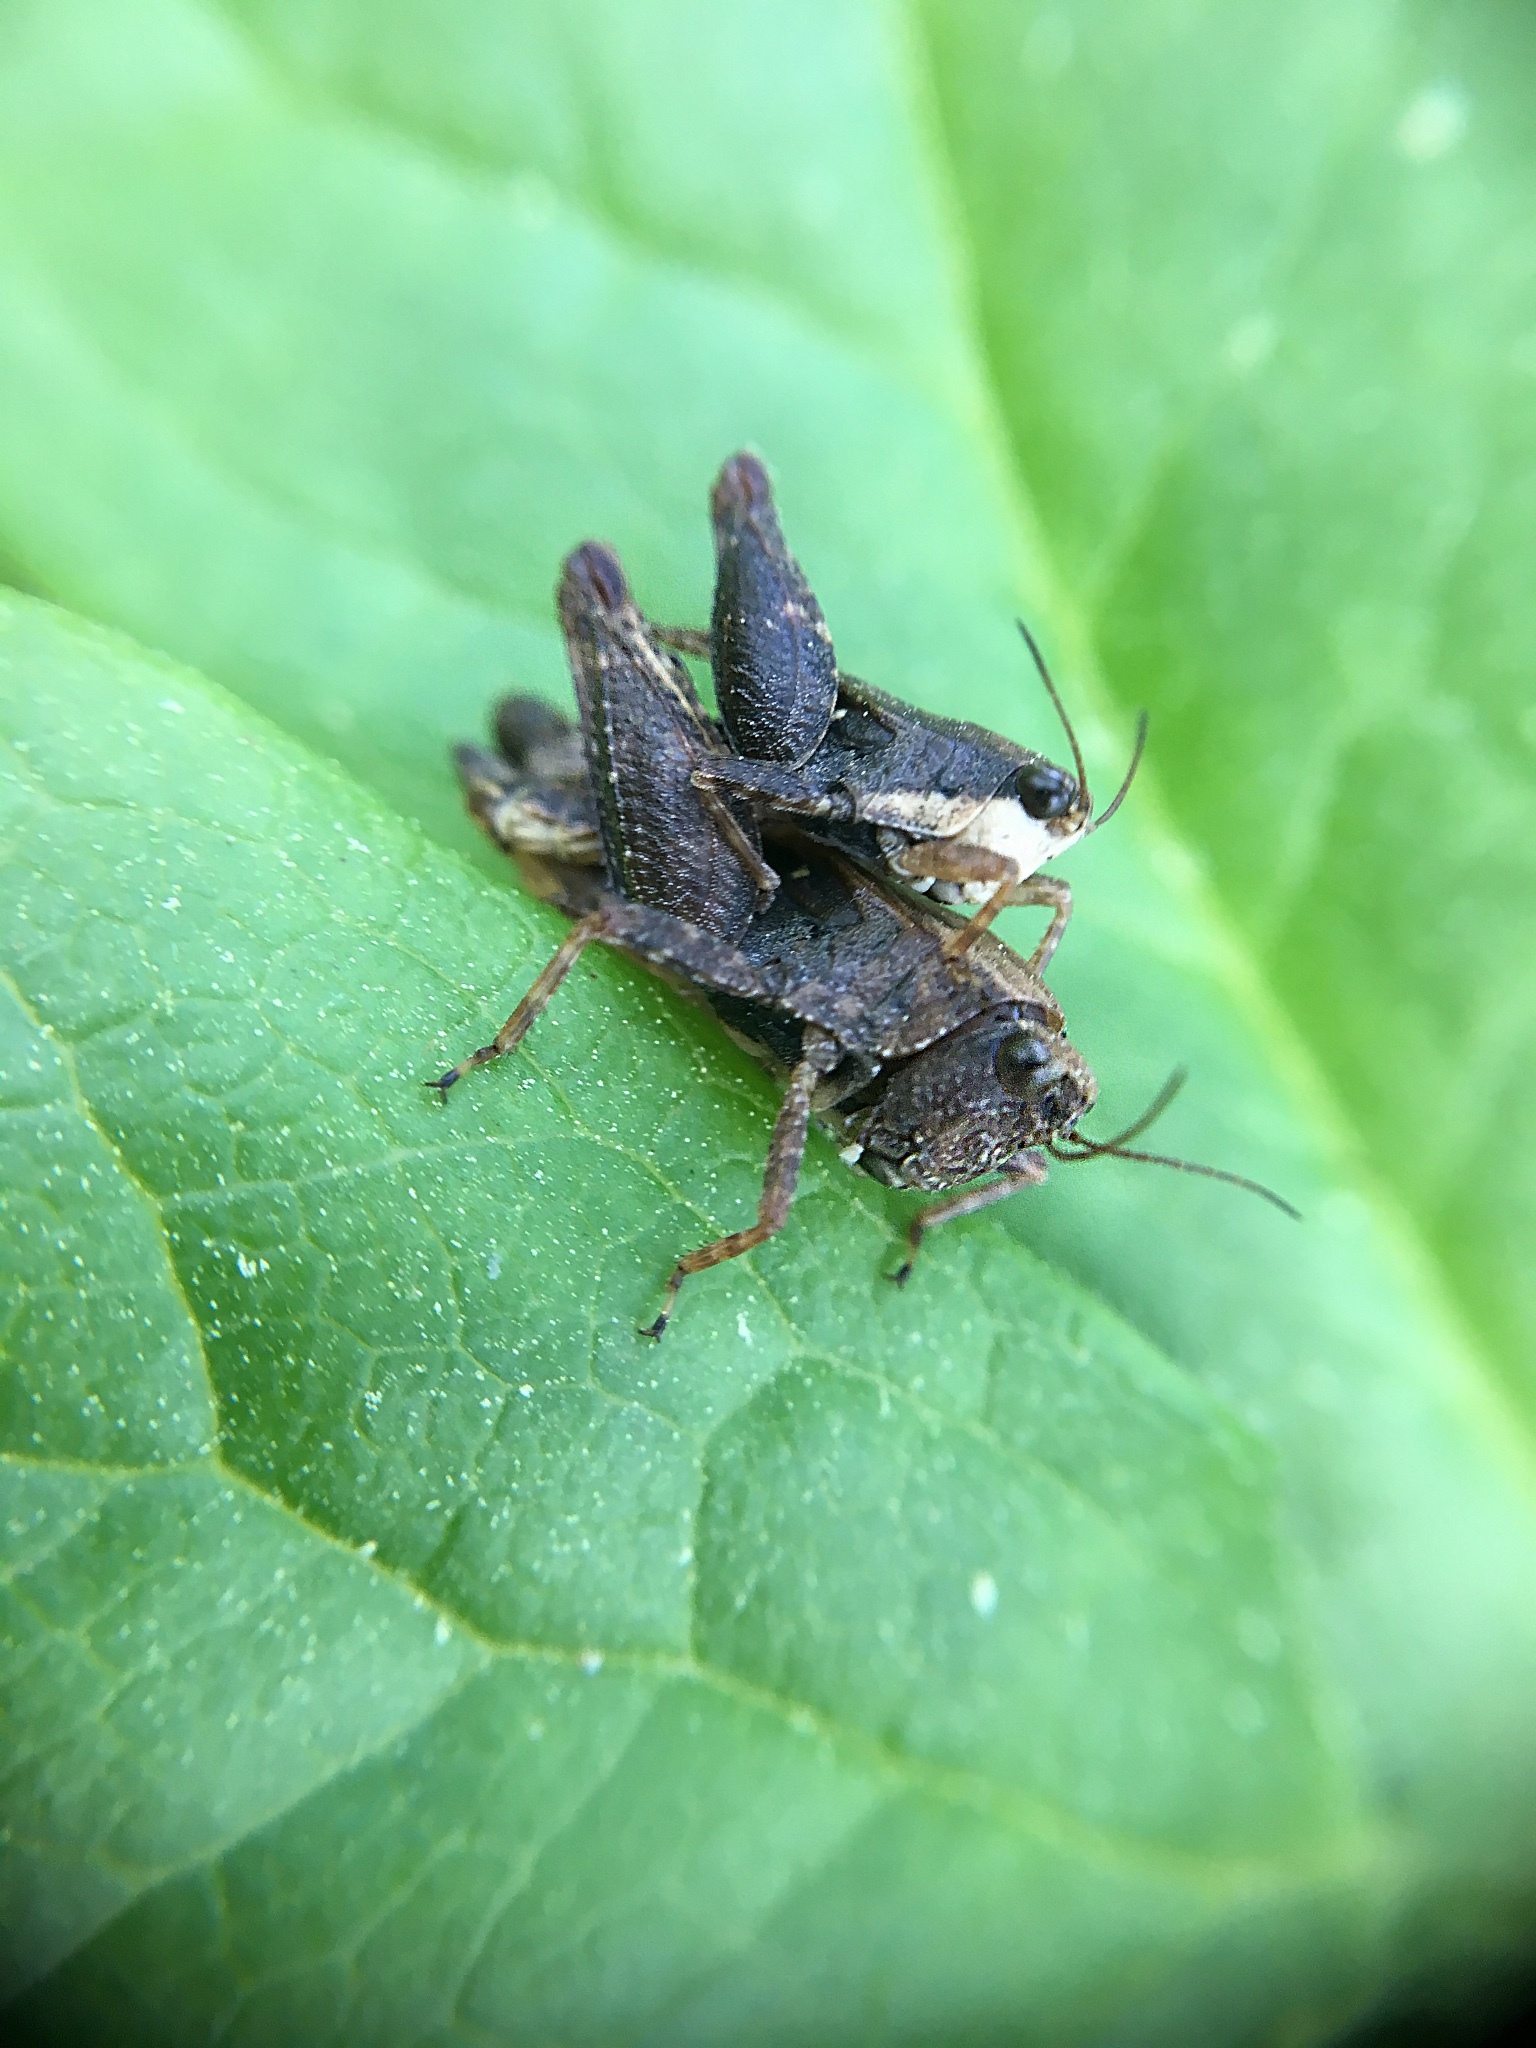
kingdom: Animalia
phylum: Arthropoda
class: Insecta
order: Orthoptera
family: Tetrigidae
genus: Tettigidea
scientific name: Tettigidea laterale
